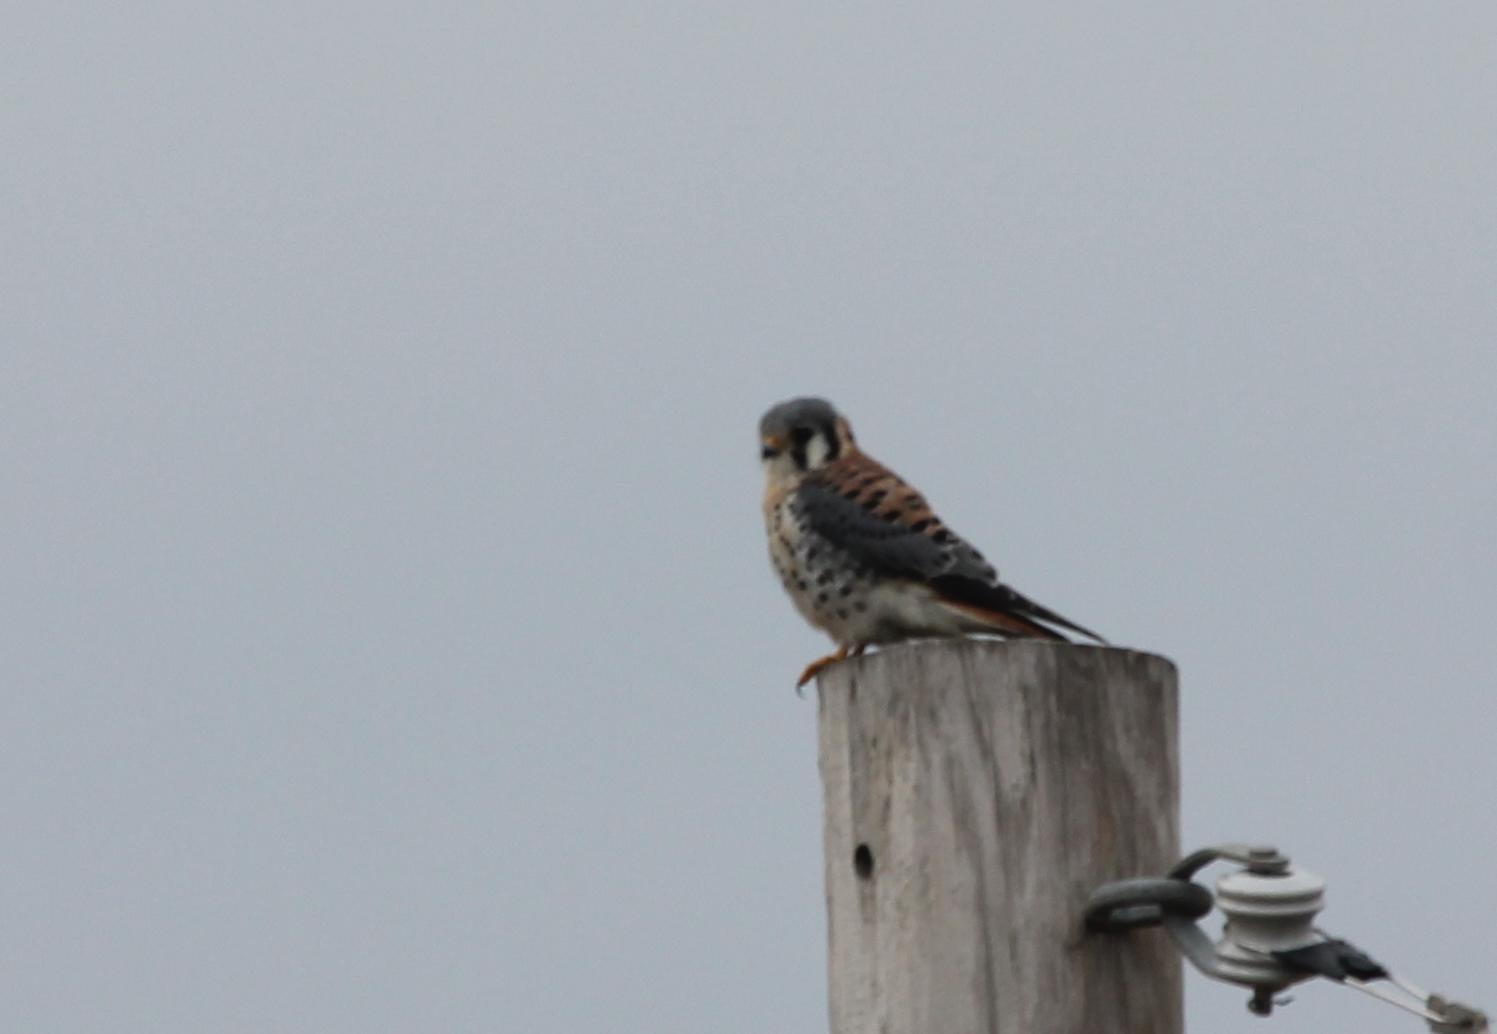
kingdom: Animalia
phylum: Chordata
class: Aves
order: Falconiformes
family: Falconidae
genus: Falco
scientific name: Falco sparverius
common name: American kestrel
